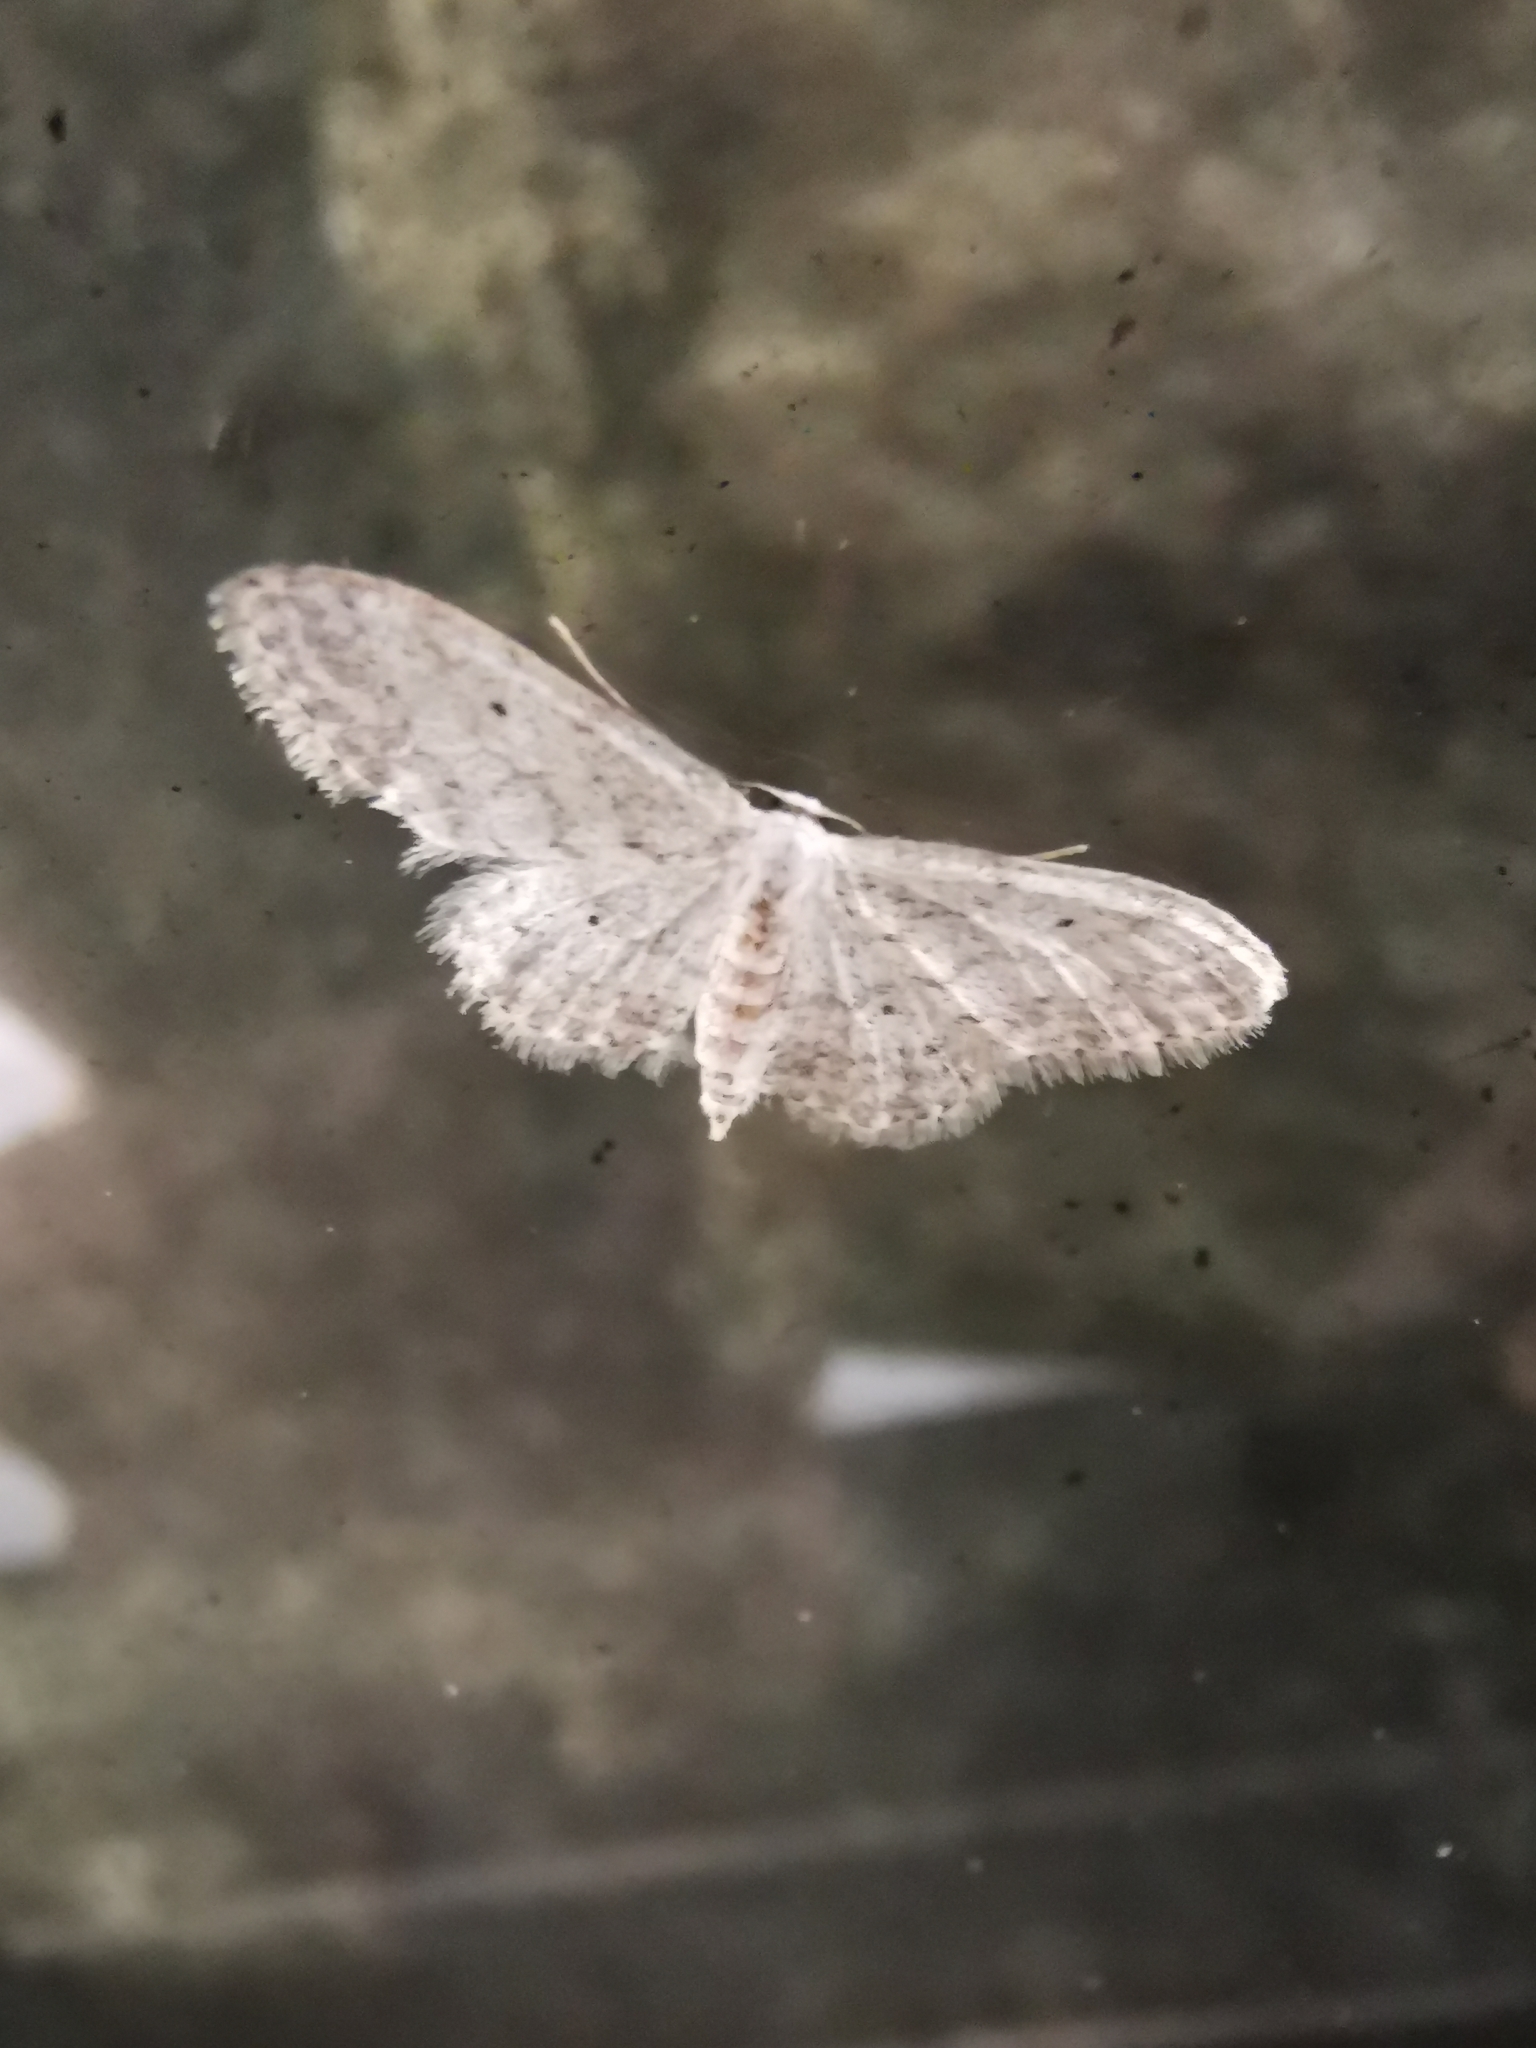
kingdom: Animalia
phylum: Arthropoda
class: Insecta
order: Lepidoptera
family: Geometridae
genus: Idaea
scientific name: Idaea seriata
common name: Small dusty wave
